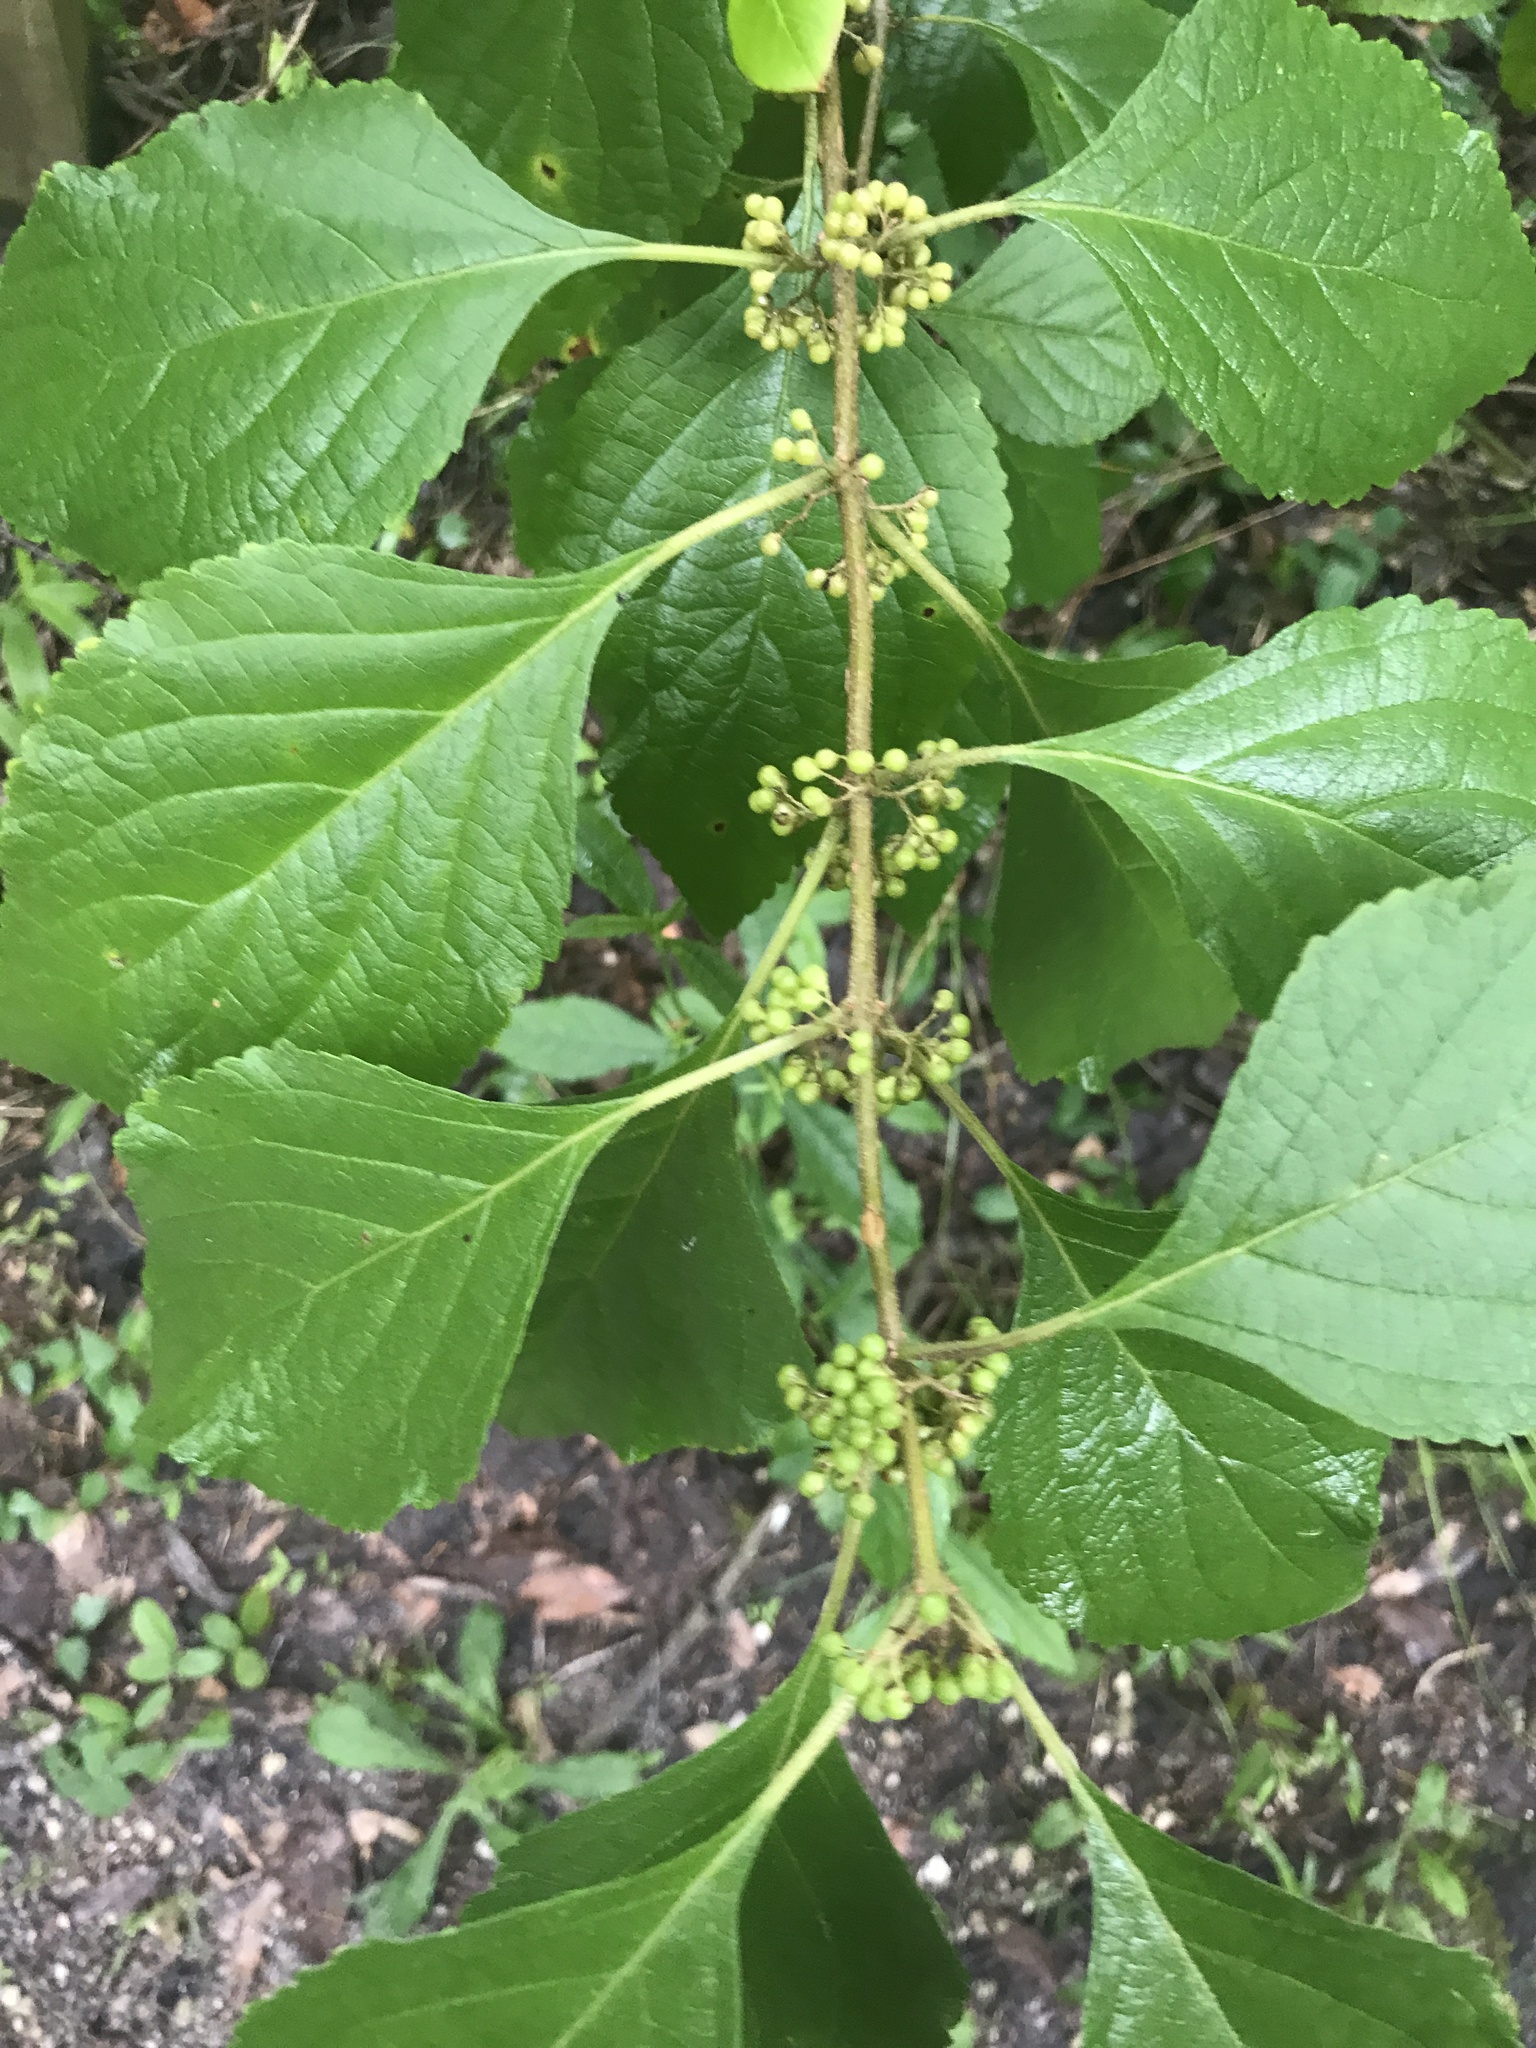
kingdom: Plantae
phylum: Tracheophyta
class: Magnoliopsida
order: Lamiales
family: Lamiaceae
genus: Callicarpa
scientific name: Callicarpa americana
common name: American beautyberry
